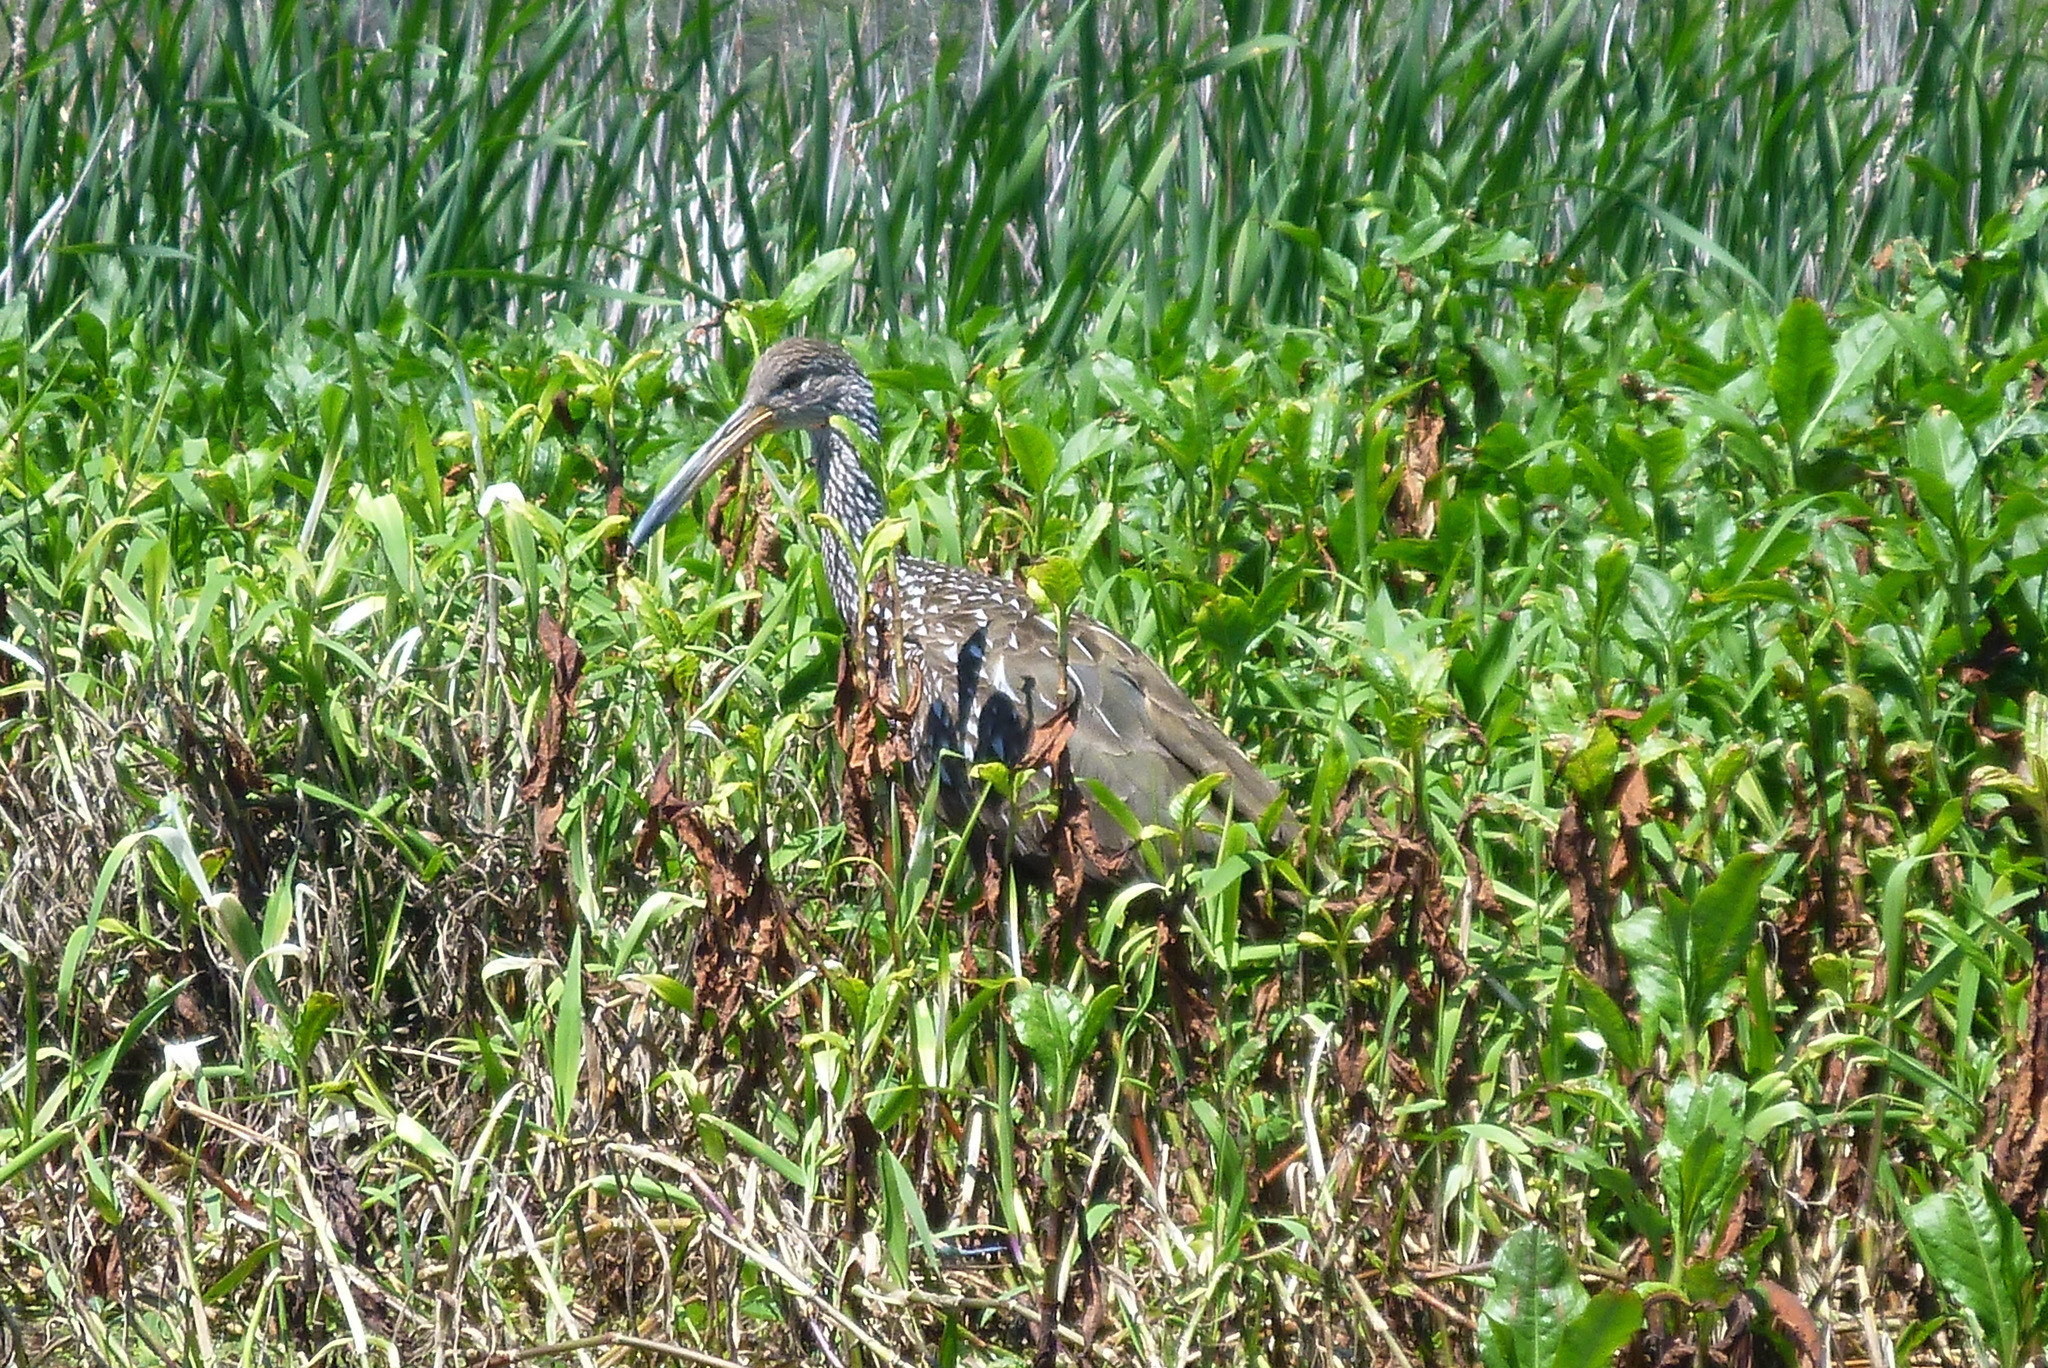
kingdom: Animalia
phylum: Chordata
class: Aves
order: Gruiformes
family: Aramidae
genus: Aramus
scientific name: Aramus guarauna
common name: Limpkin
